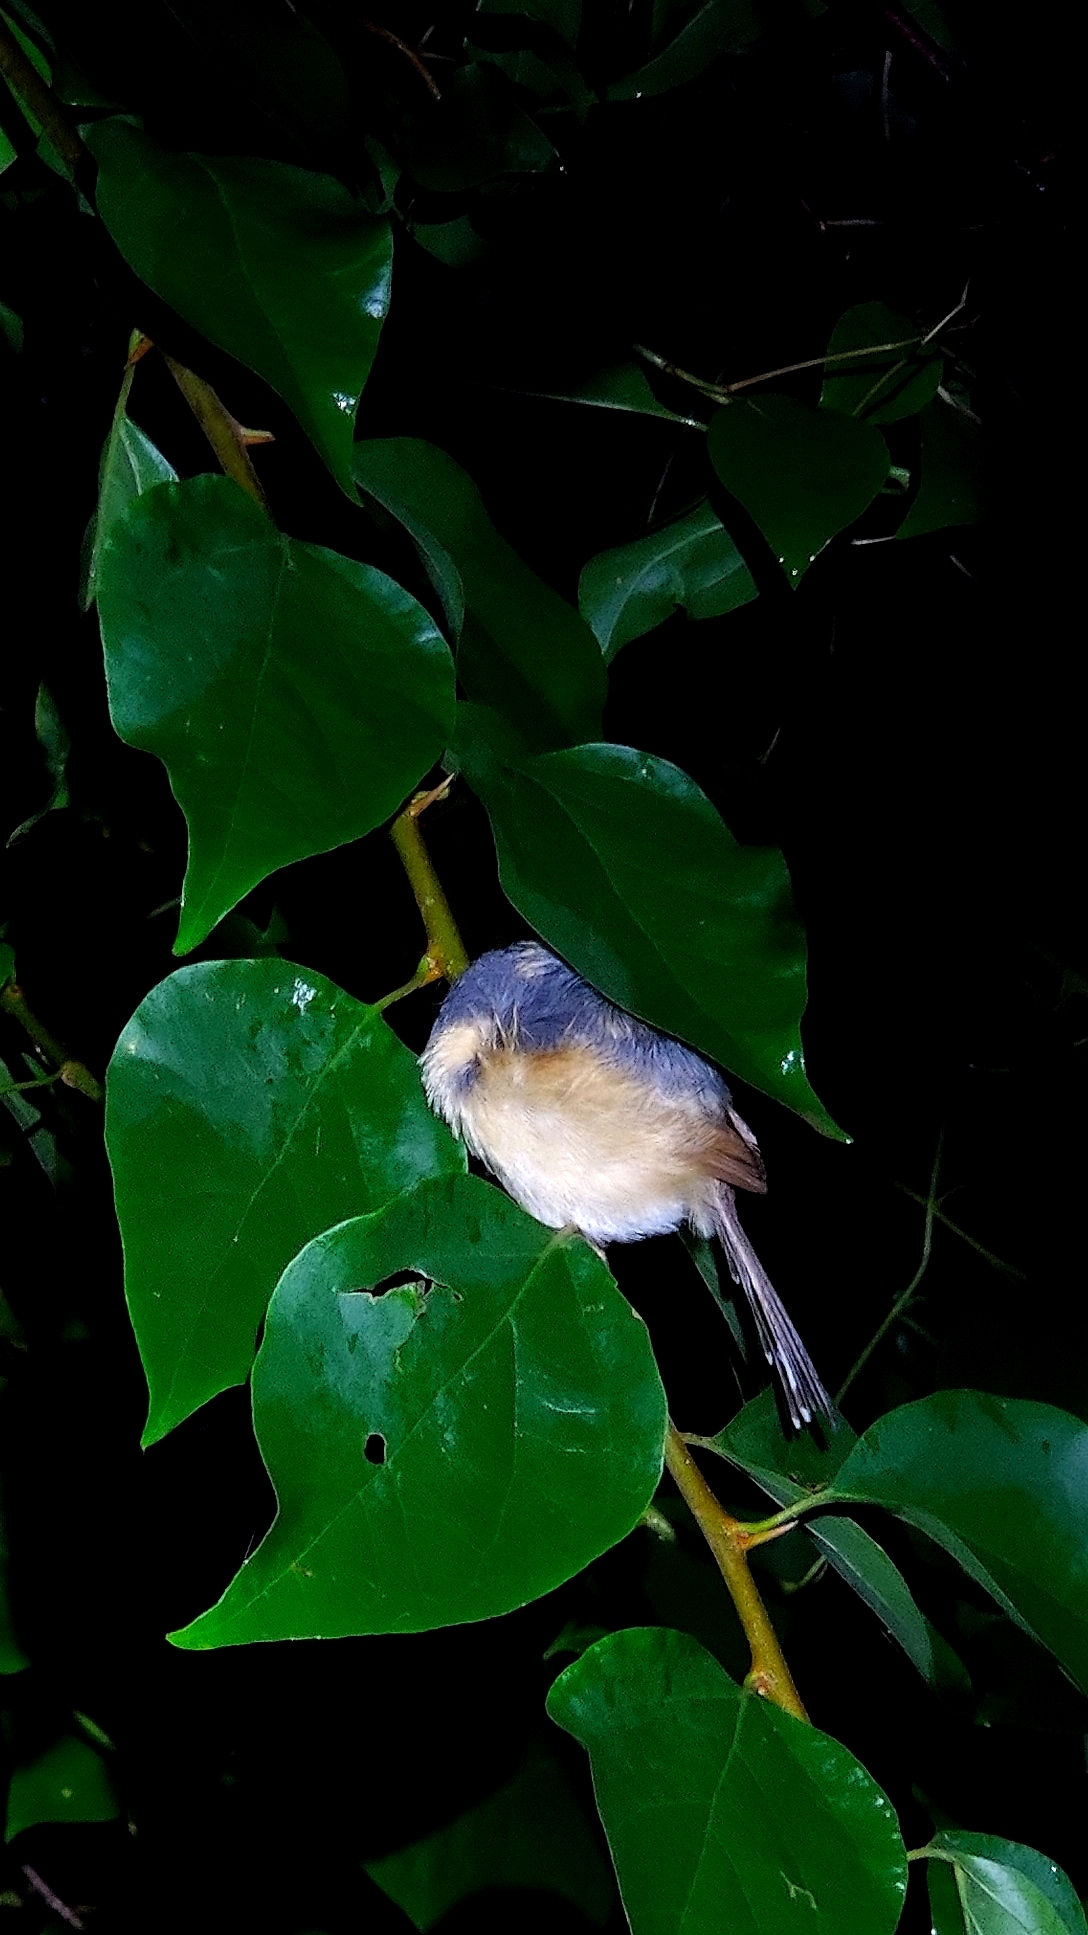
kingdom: Animalia
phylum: Chordata
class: Aves
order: Passeriformes
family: Cisticolidae
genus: Prinia
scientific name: Prinia socialis
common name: Ashy prinia
